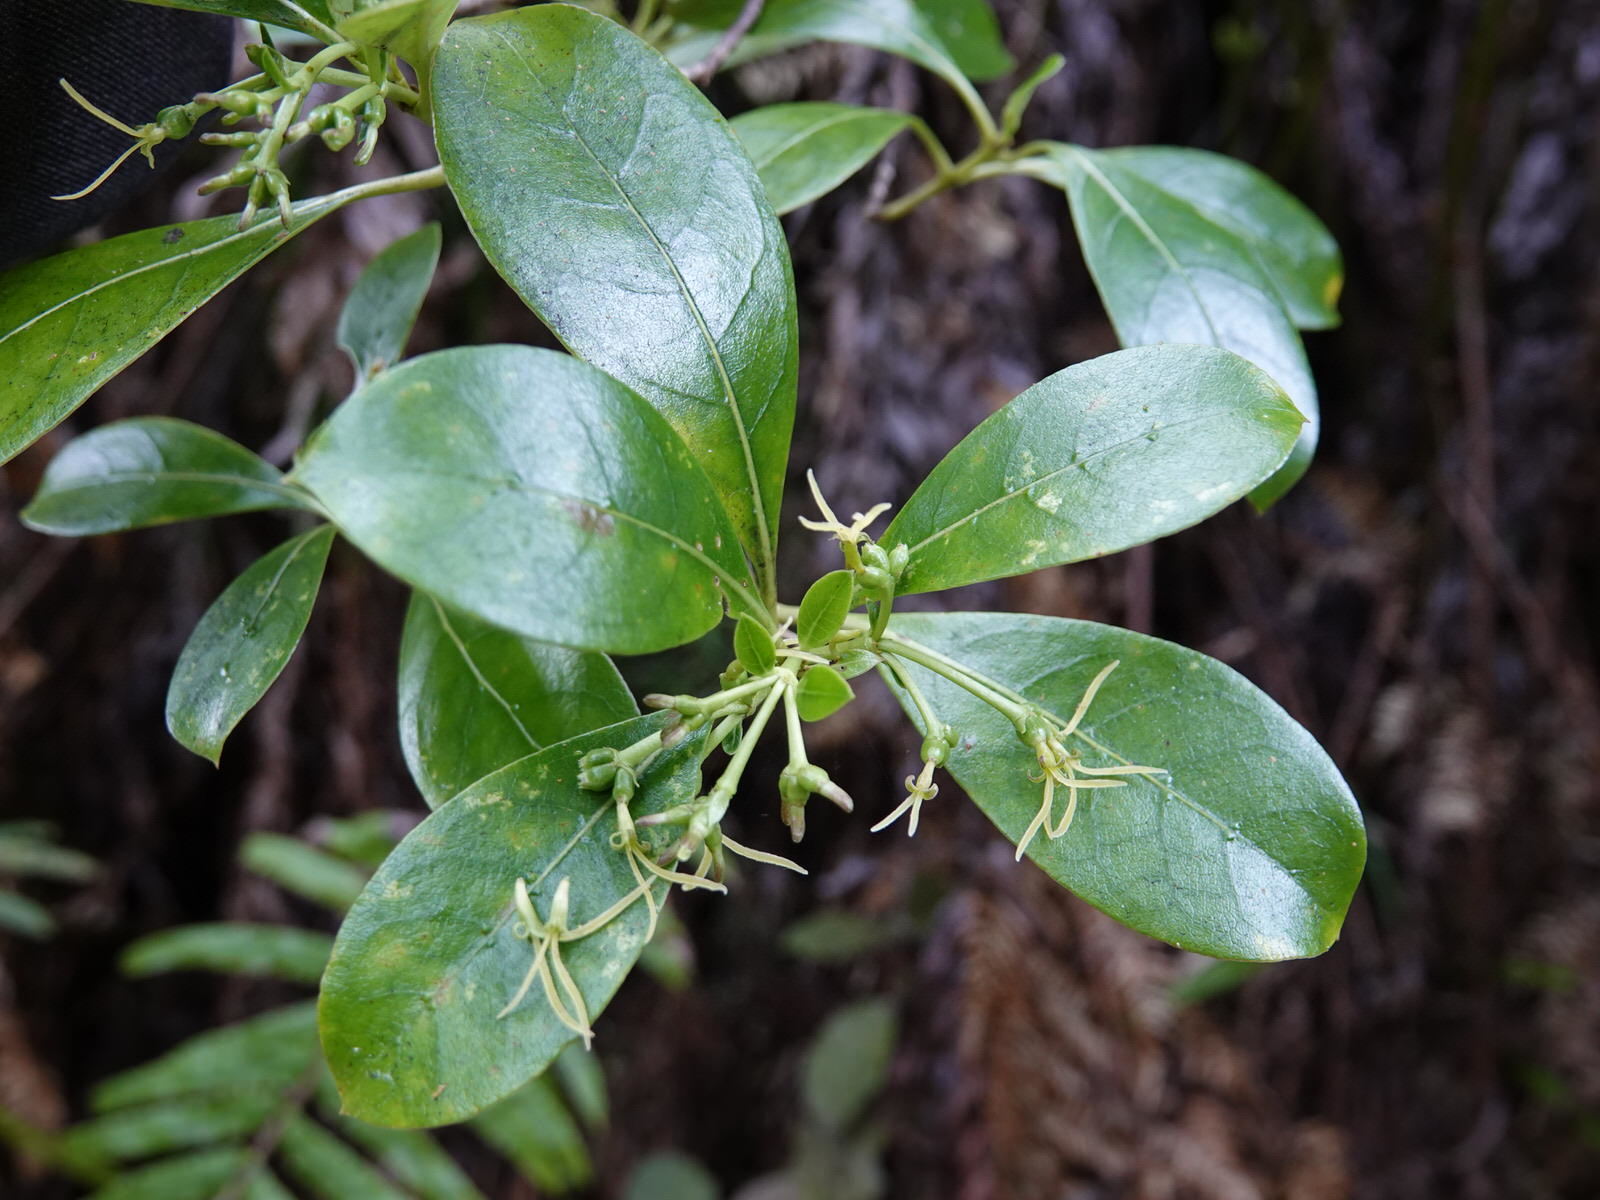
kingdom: Plantae
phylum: Tracheophyta
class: Magnoliopsida
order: Gentianales
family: Rubiaceae
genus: Coprosma
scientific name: Coprosma lucida
